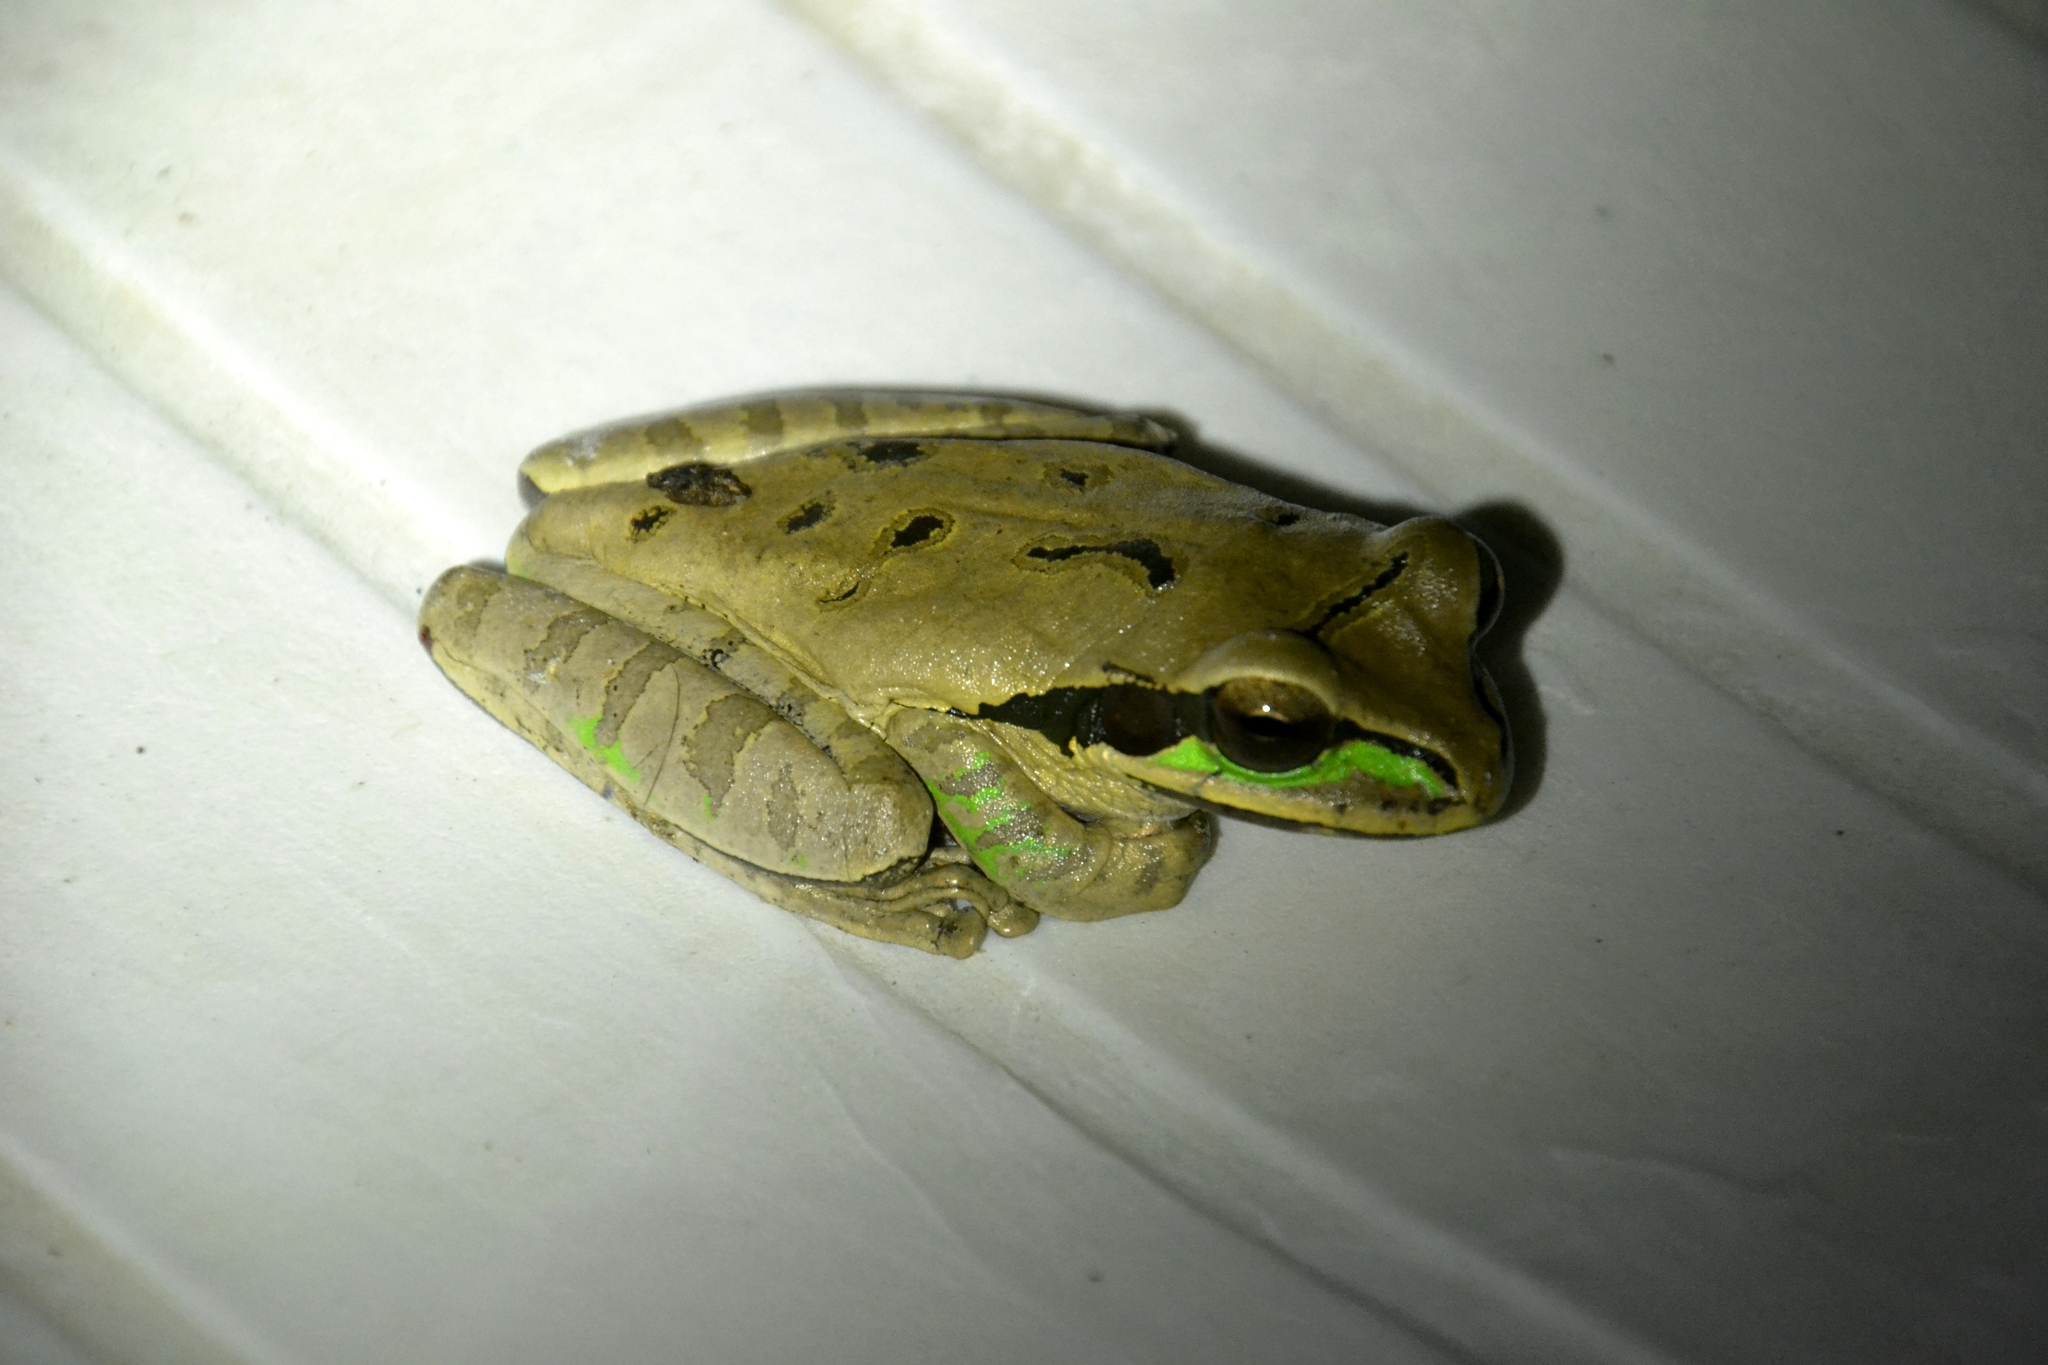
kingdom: Animalia
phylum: Chordata
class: Amphibia
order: Anura
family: Hylidae
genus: Smilisca
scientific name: Smilisca phaeota
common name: Central american smilisca
